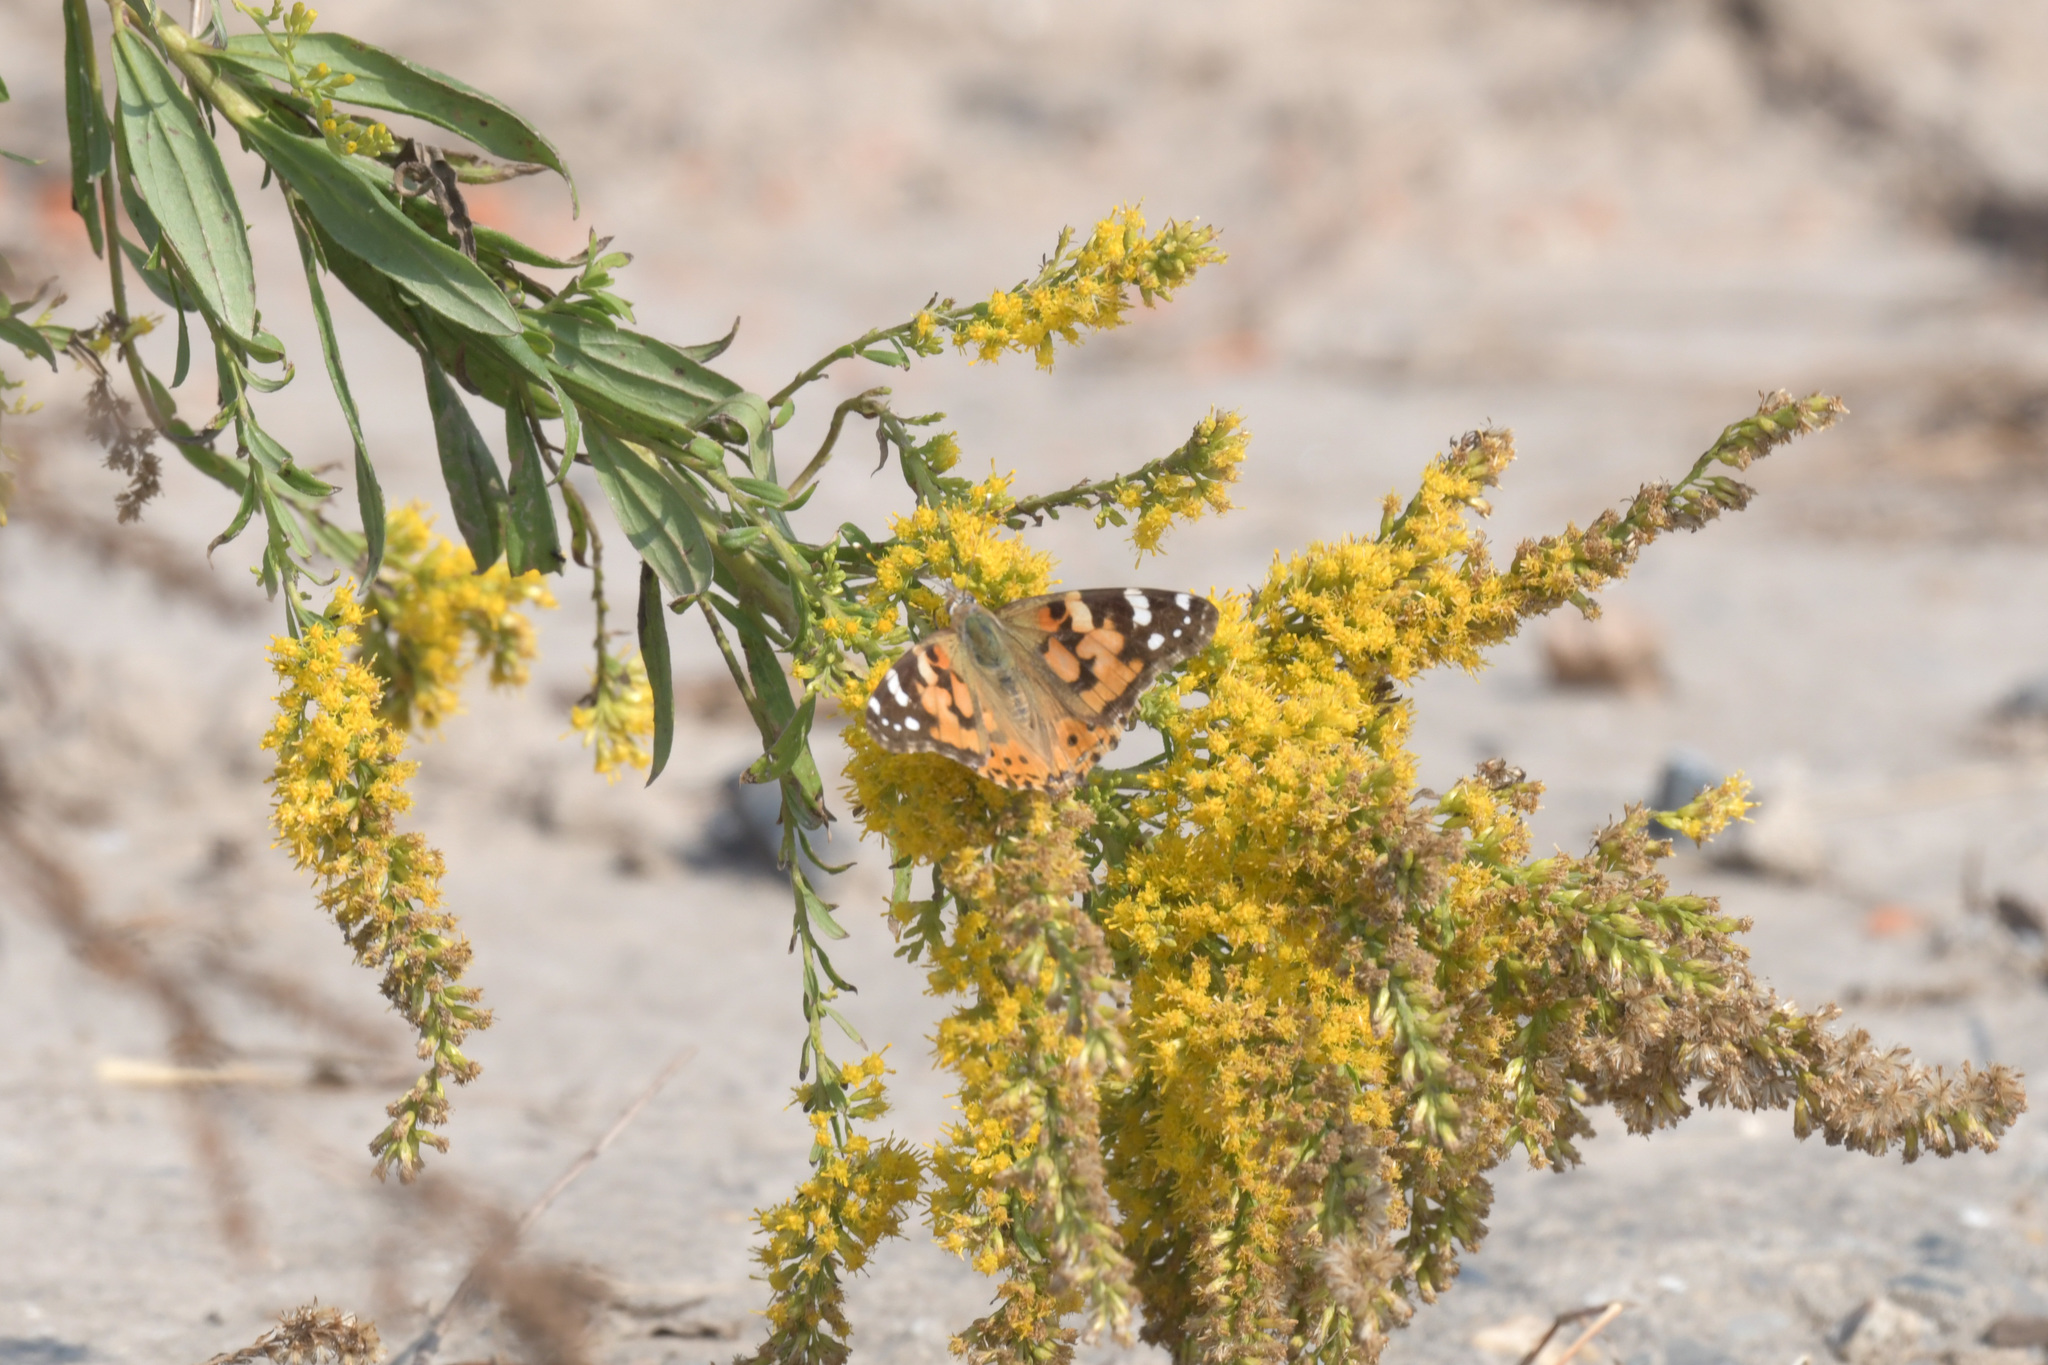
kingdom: Animalia
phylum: Arthropoda
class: Insecta
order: Lepidoptera
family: Nymphalidae
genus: Vanessa
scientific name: Vanessa cardui
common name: Painted lady
